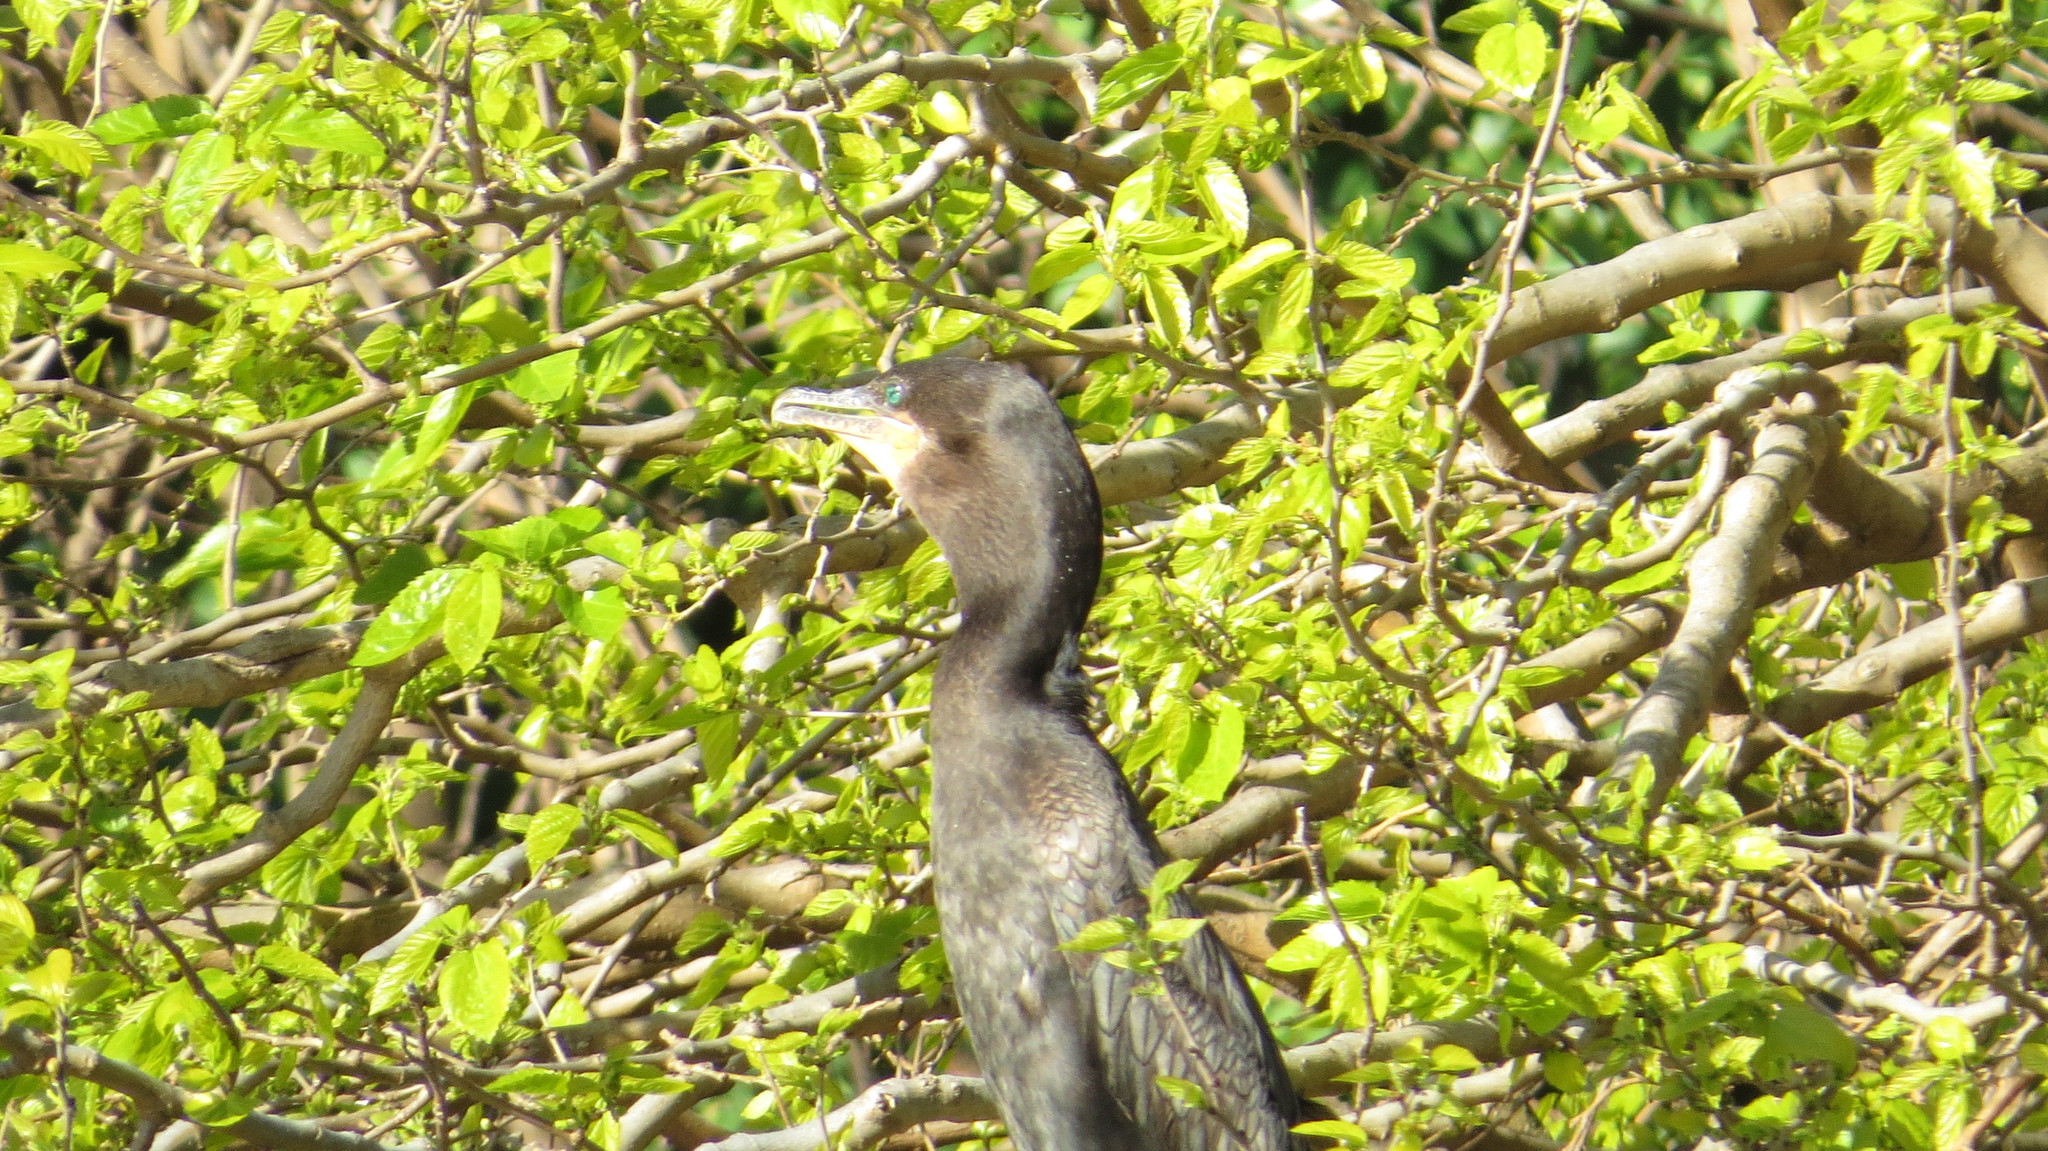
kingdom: Animalia
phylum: Chordata
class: Aves
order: Suliformes
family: Phalacrocoracidae
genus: Phalacrocorax
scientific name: Phalacrocorax brasilianus
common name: Neotropic cormorant
